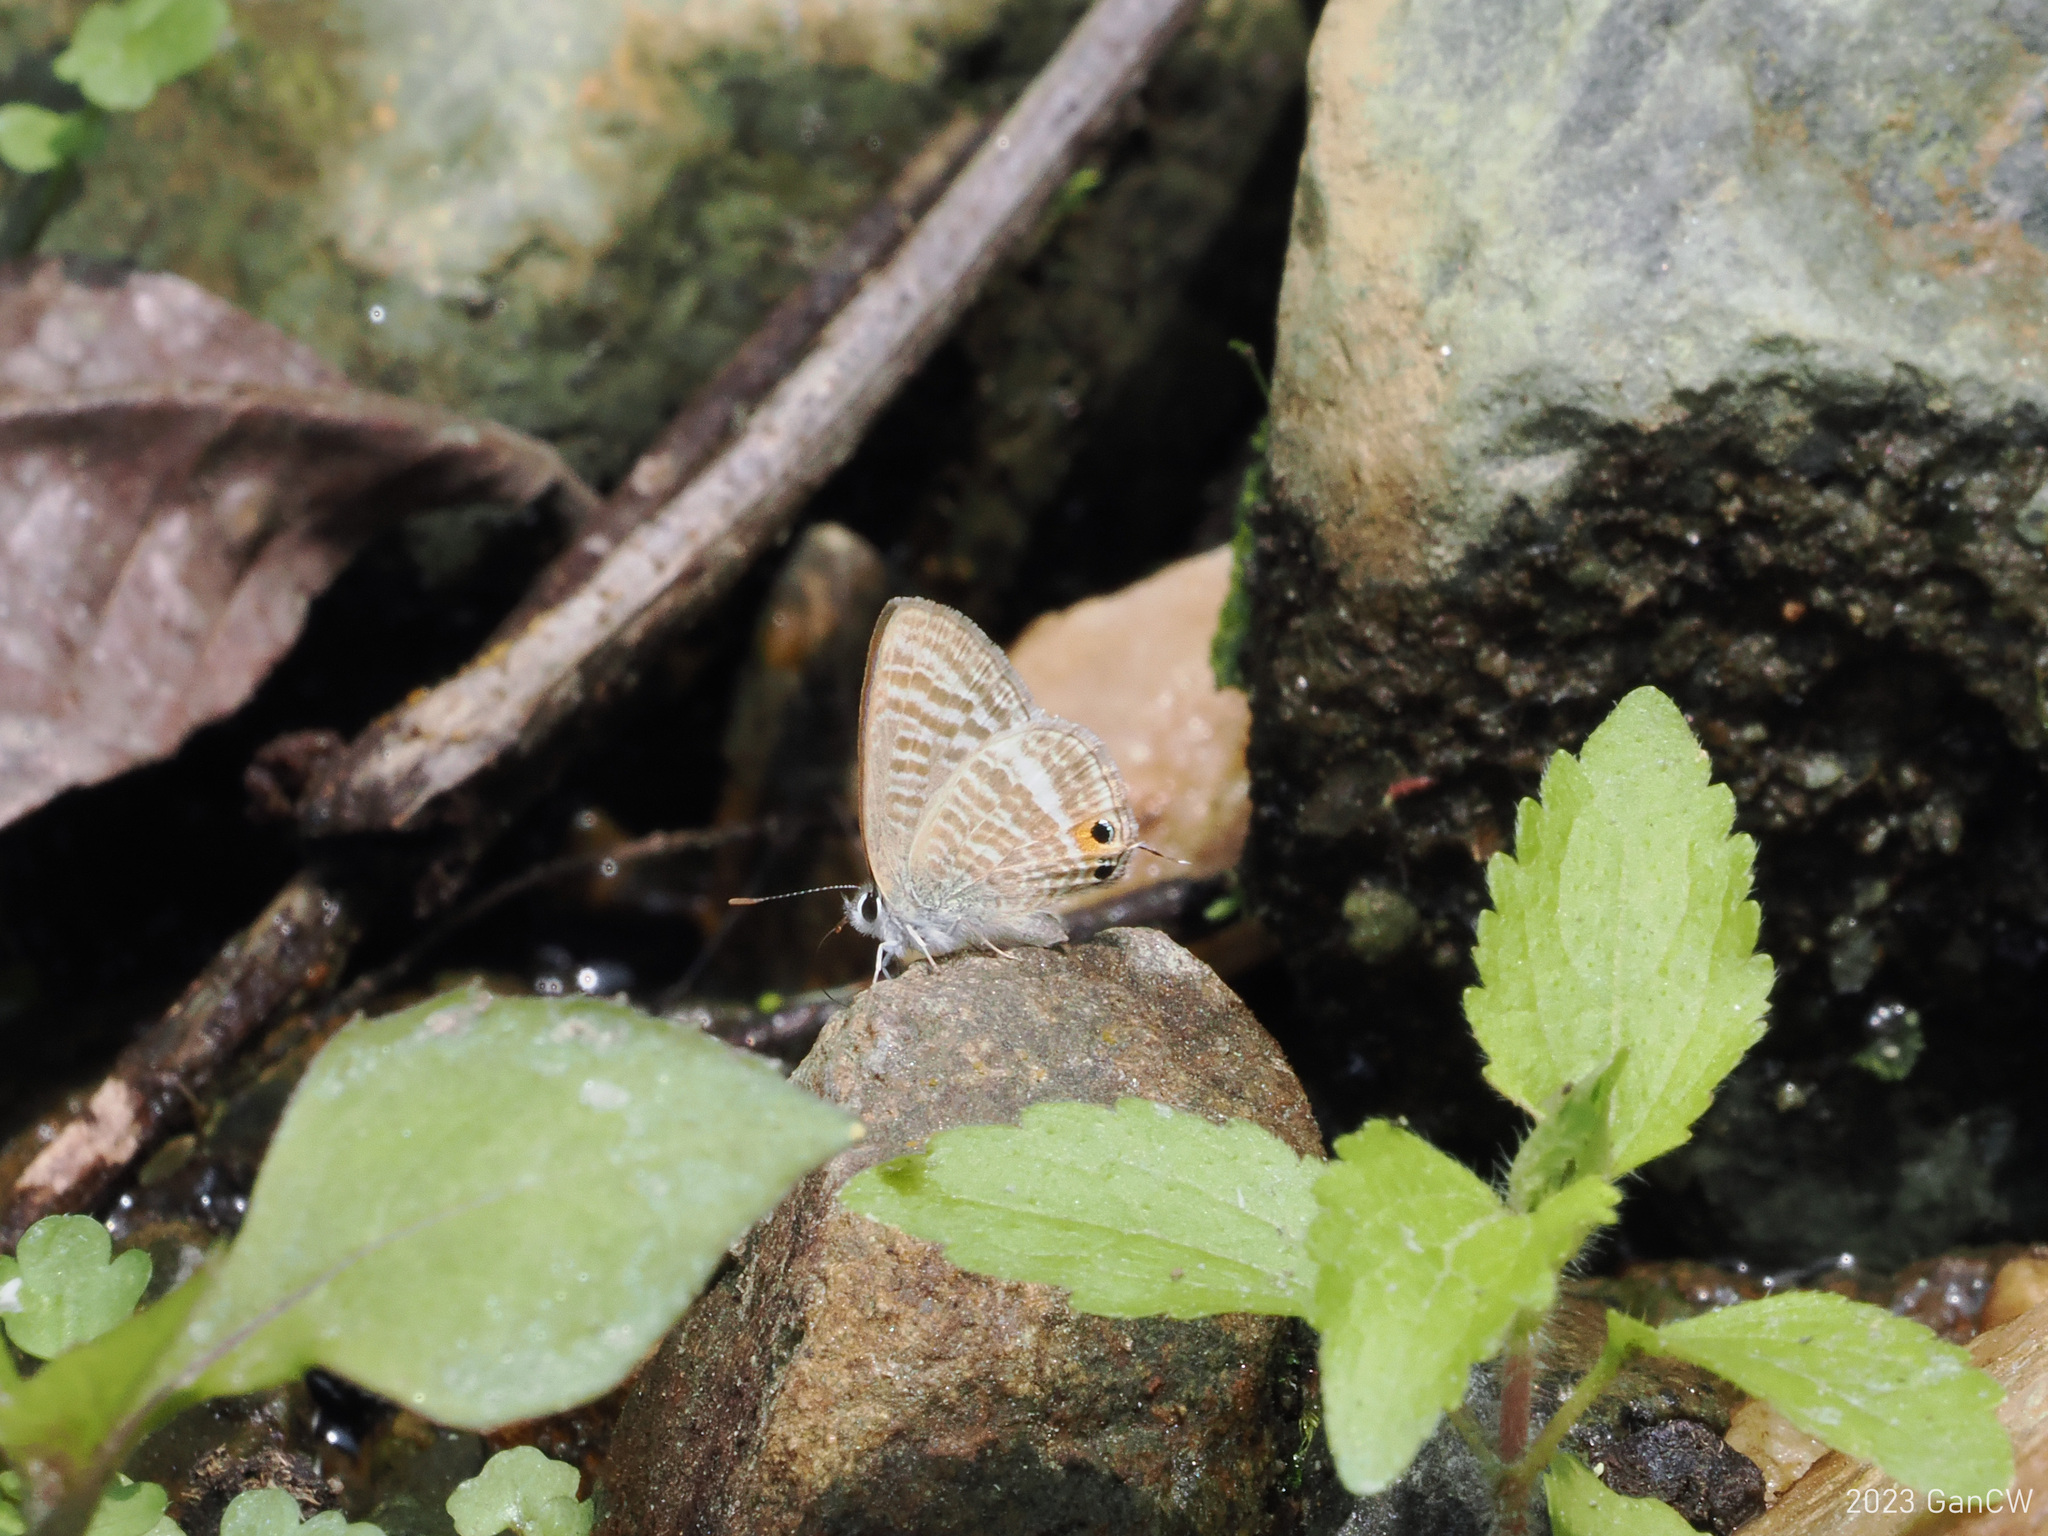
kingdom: Animalia
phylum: Arthropoda
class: Insecta
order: Lepidoptera
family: Lycaenidae
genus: Lampides
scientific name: Lampides boeticus
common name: Long-tailed blue
